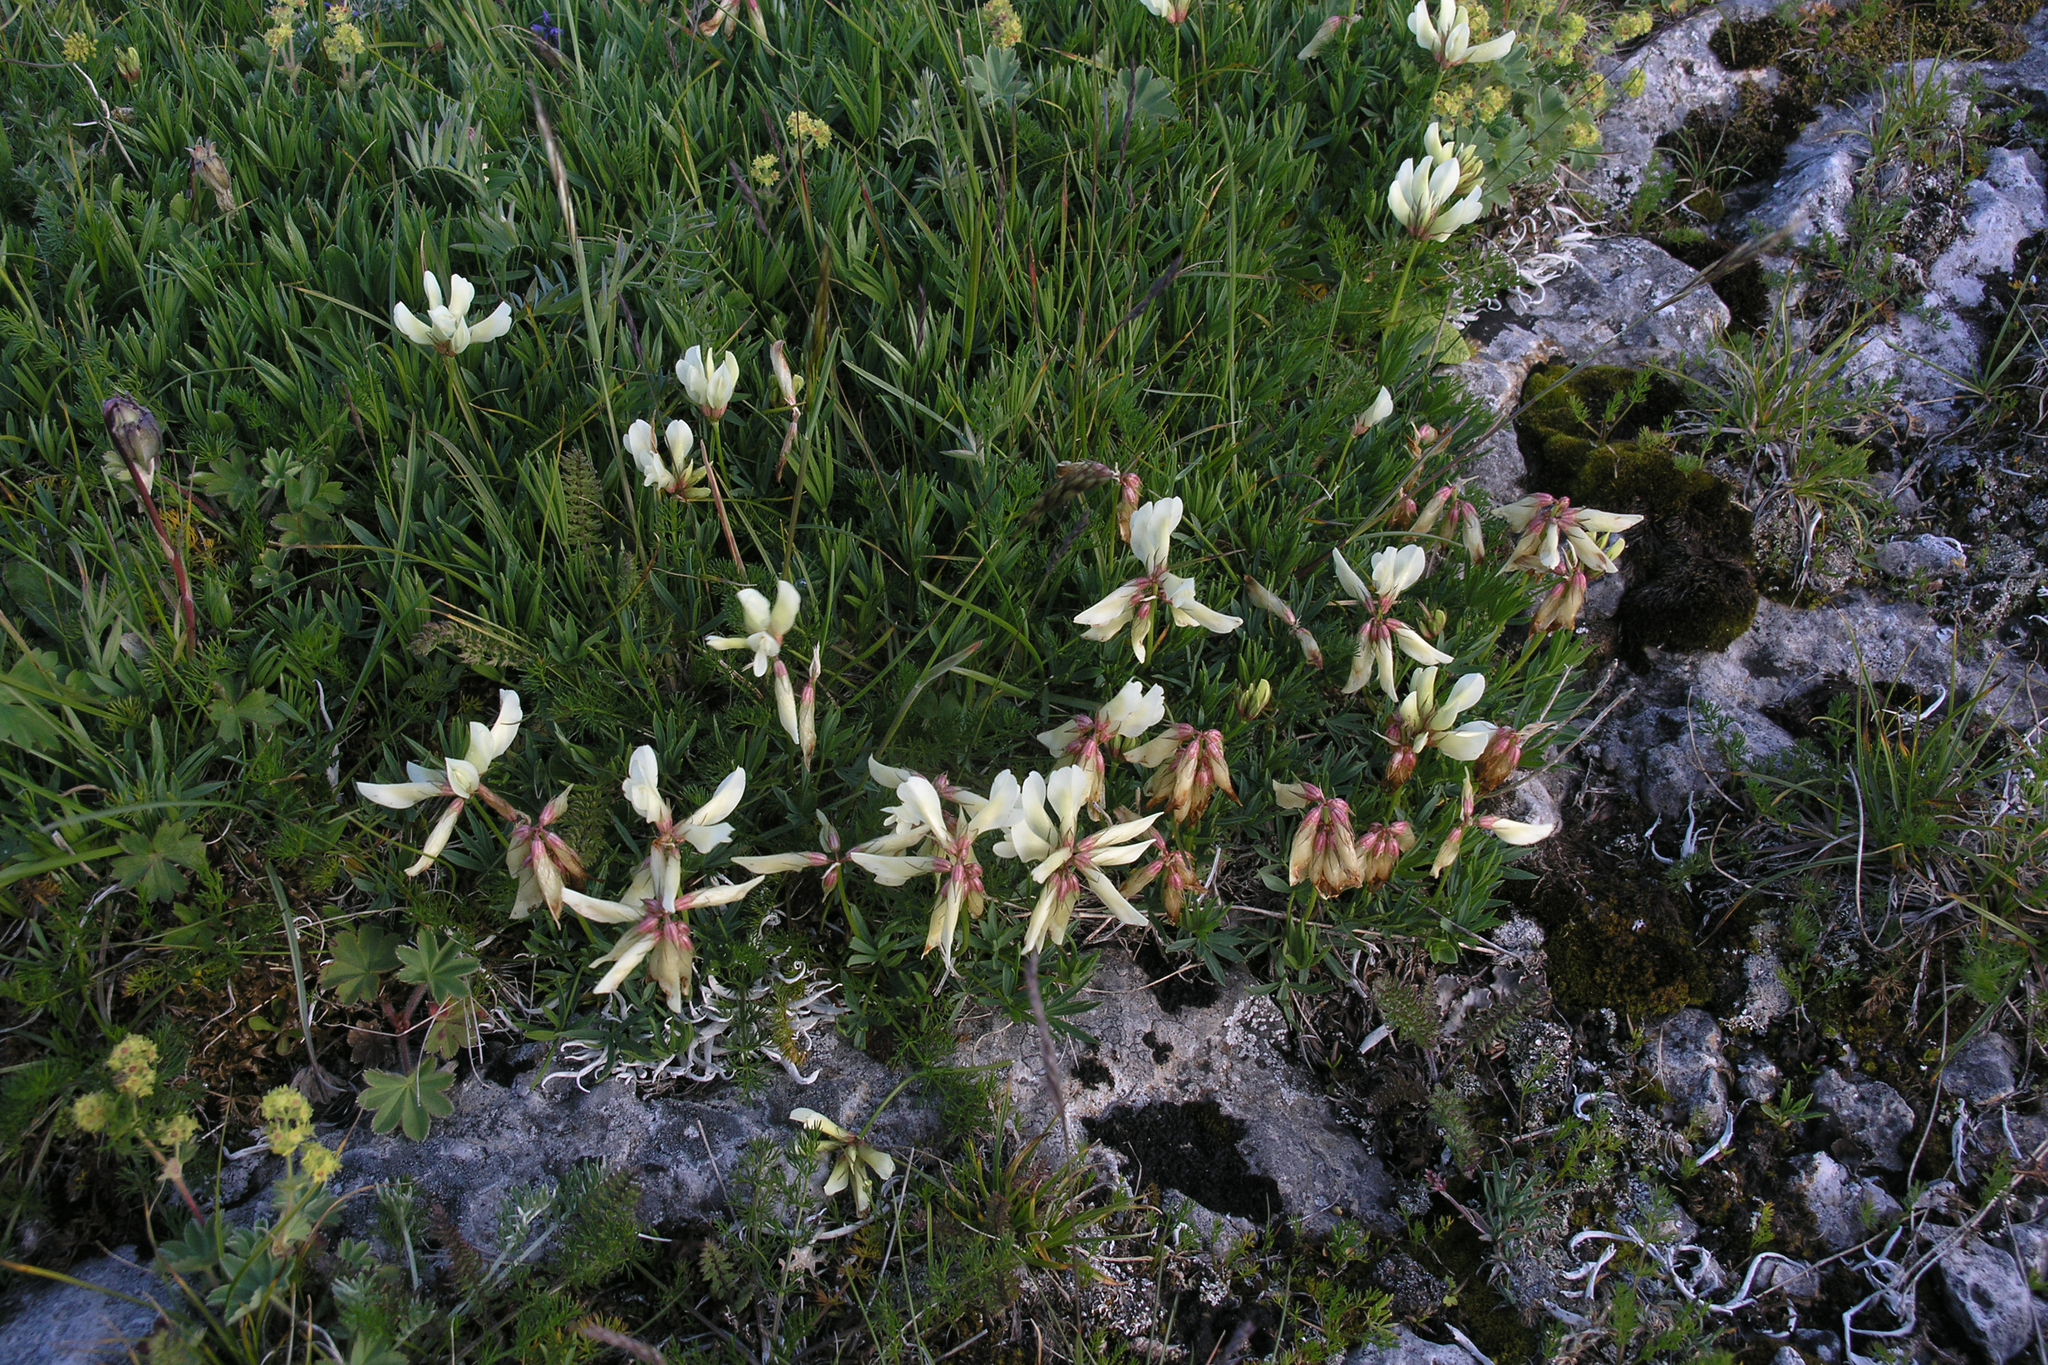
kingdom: Plantae
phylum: Tracheophyta
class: Magnoliopsida
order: Fabales
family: Fabaceae
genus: Trifolium
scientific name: Trifolium polyphyllum
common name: Many-leaf clover
